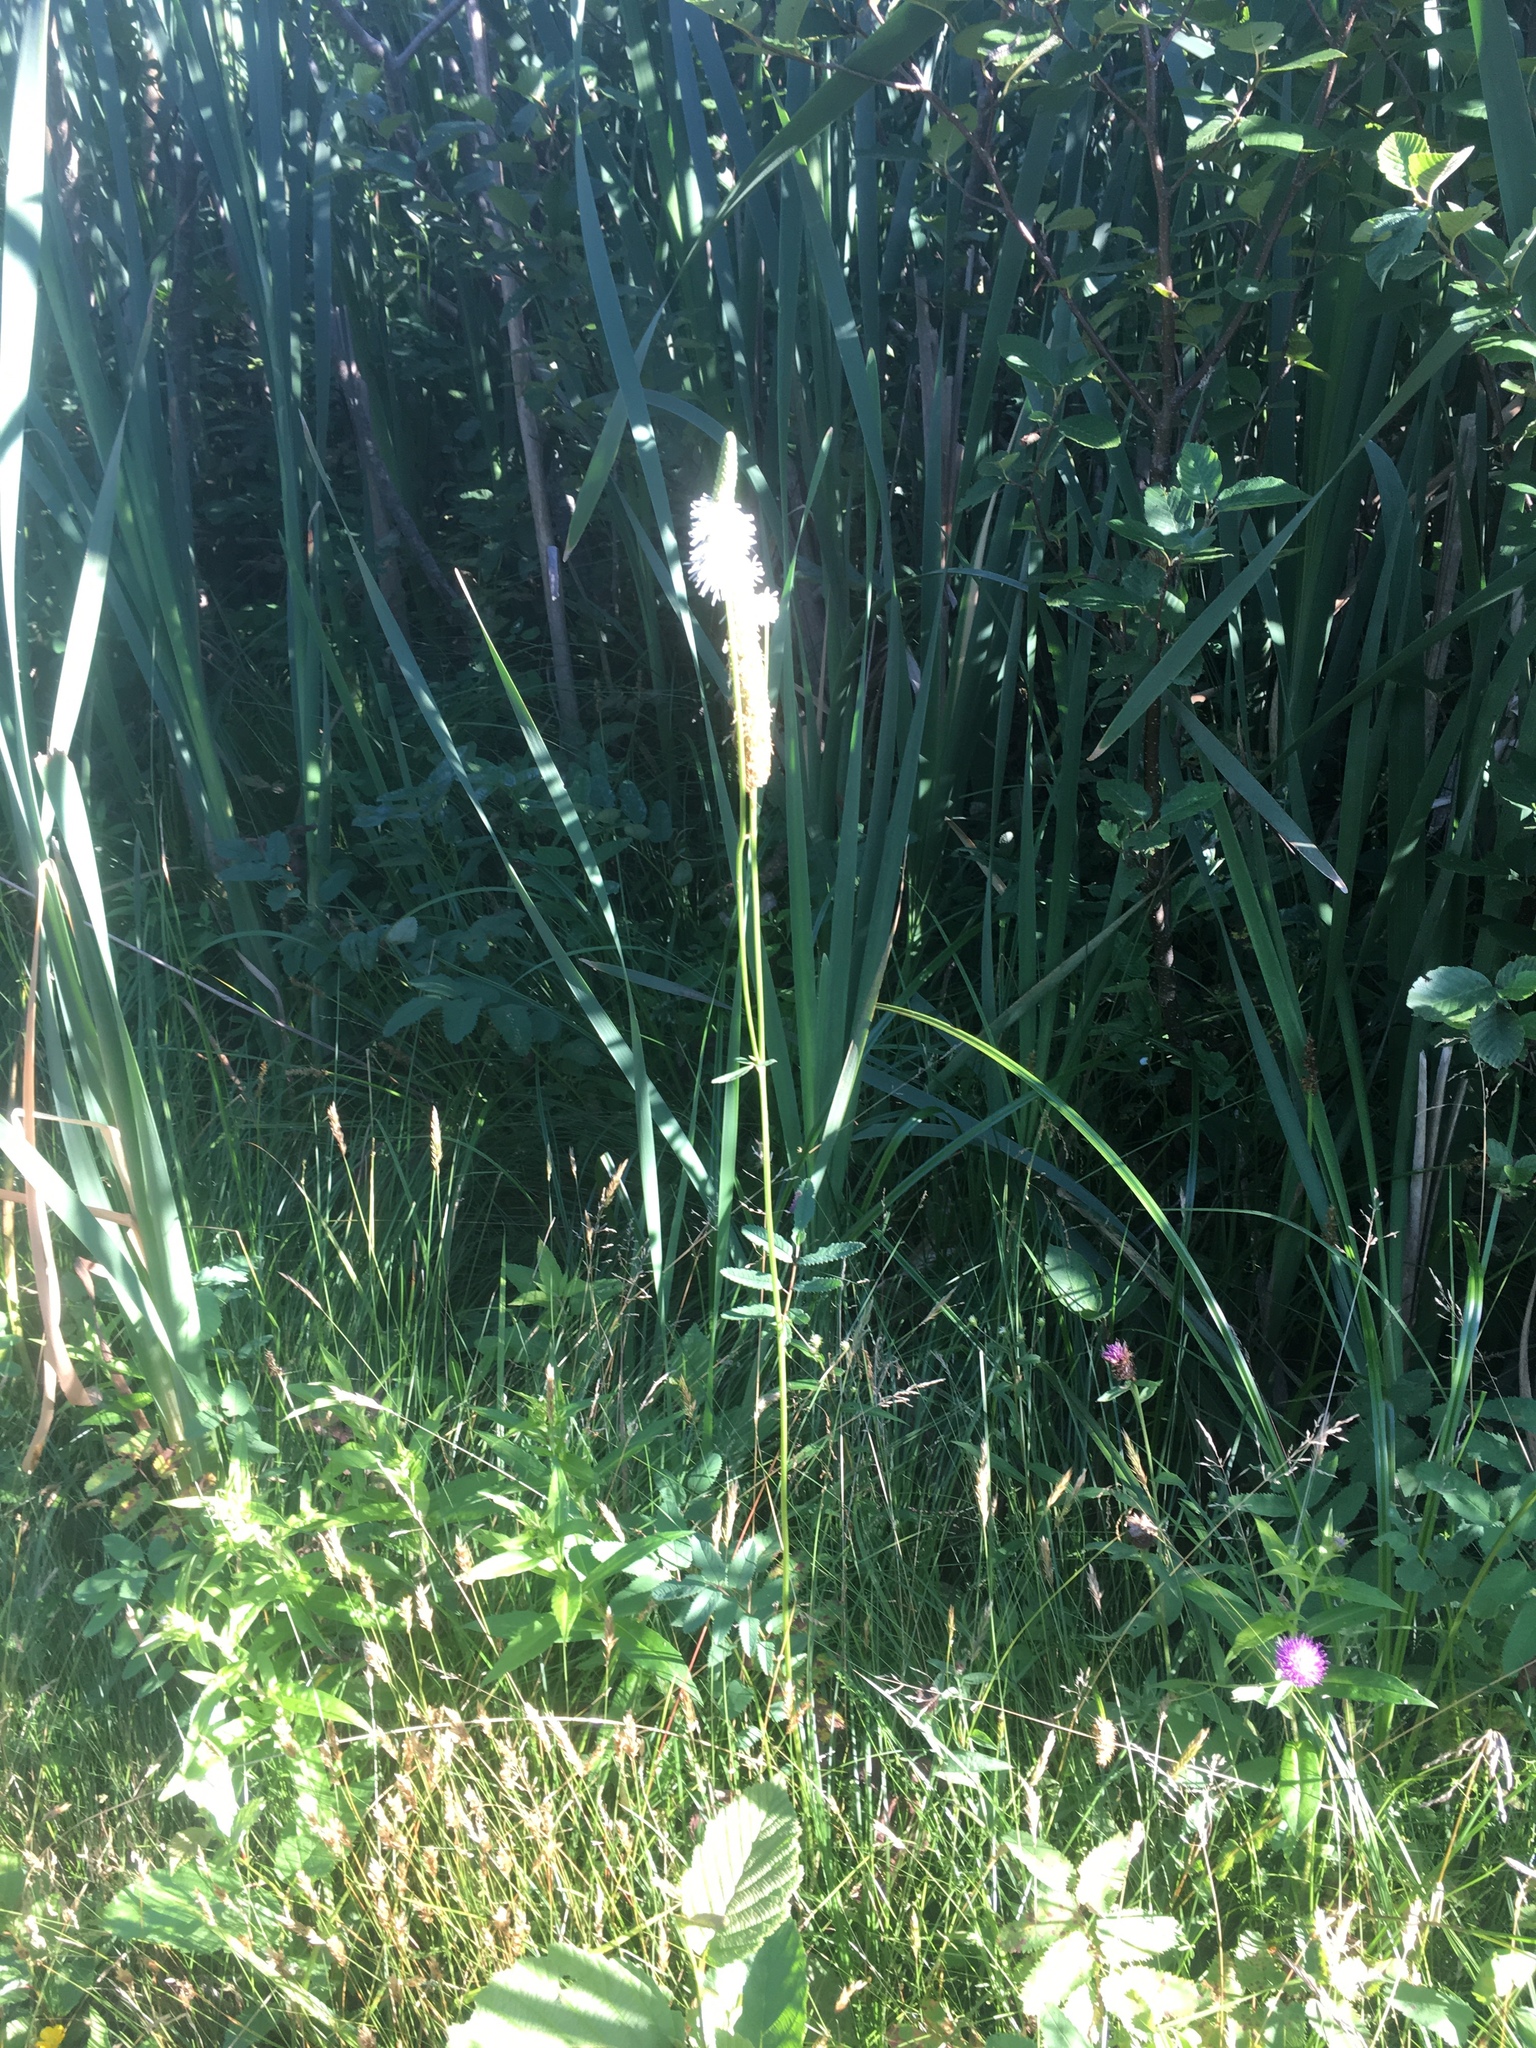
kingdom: Plantae
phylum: Tracheophyta
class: Magnoliopsida
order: Rosales
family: Rosaceae
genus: Sanguisorba
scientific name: Sanguisorba canadensis
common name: White burnet
